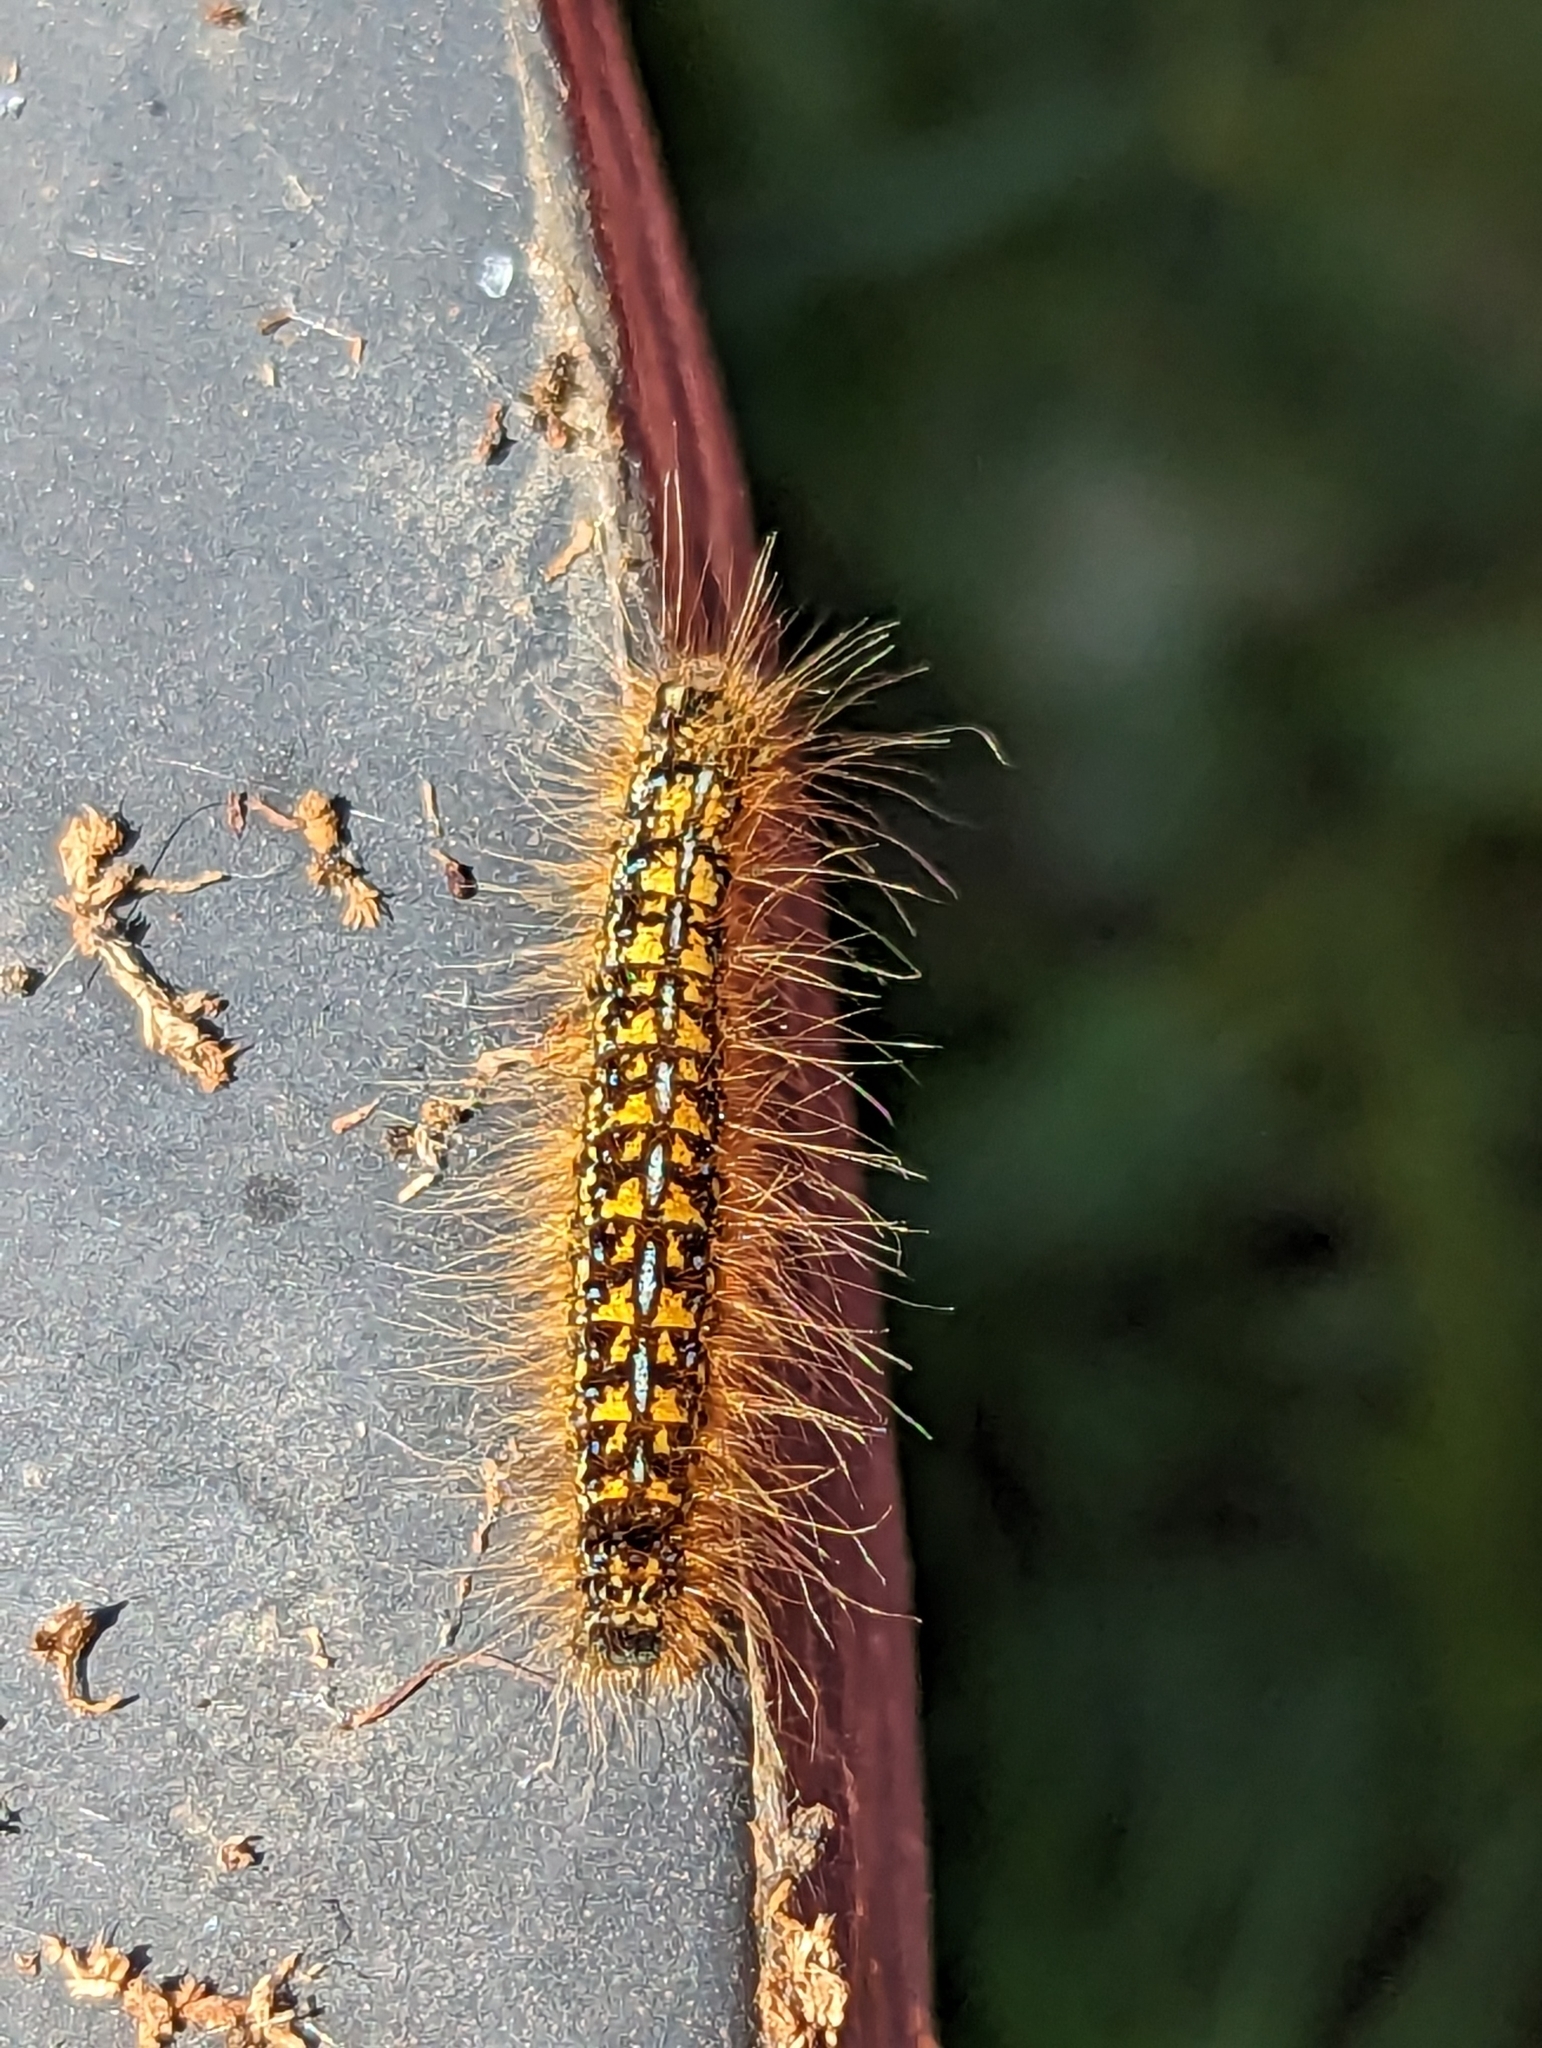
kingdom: Animalia
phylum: Arthropoda
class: Insecta
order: Lepidoptera
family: Lasiocampidae
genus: Malacosoma
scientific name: Malacosoma californica
